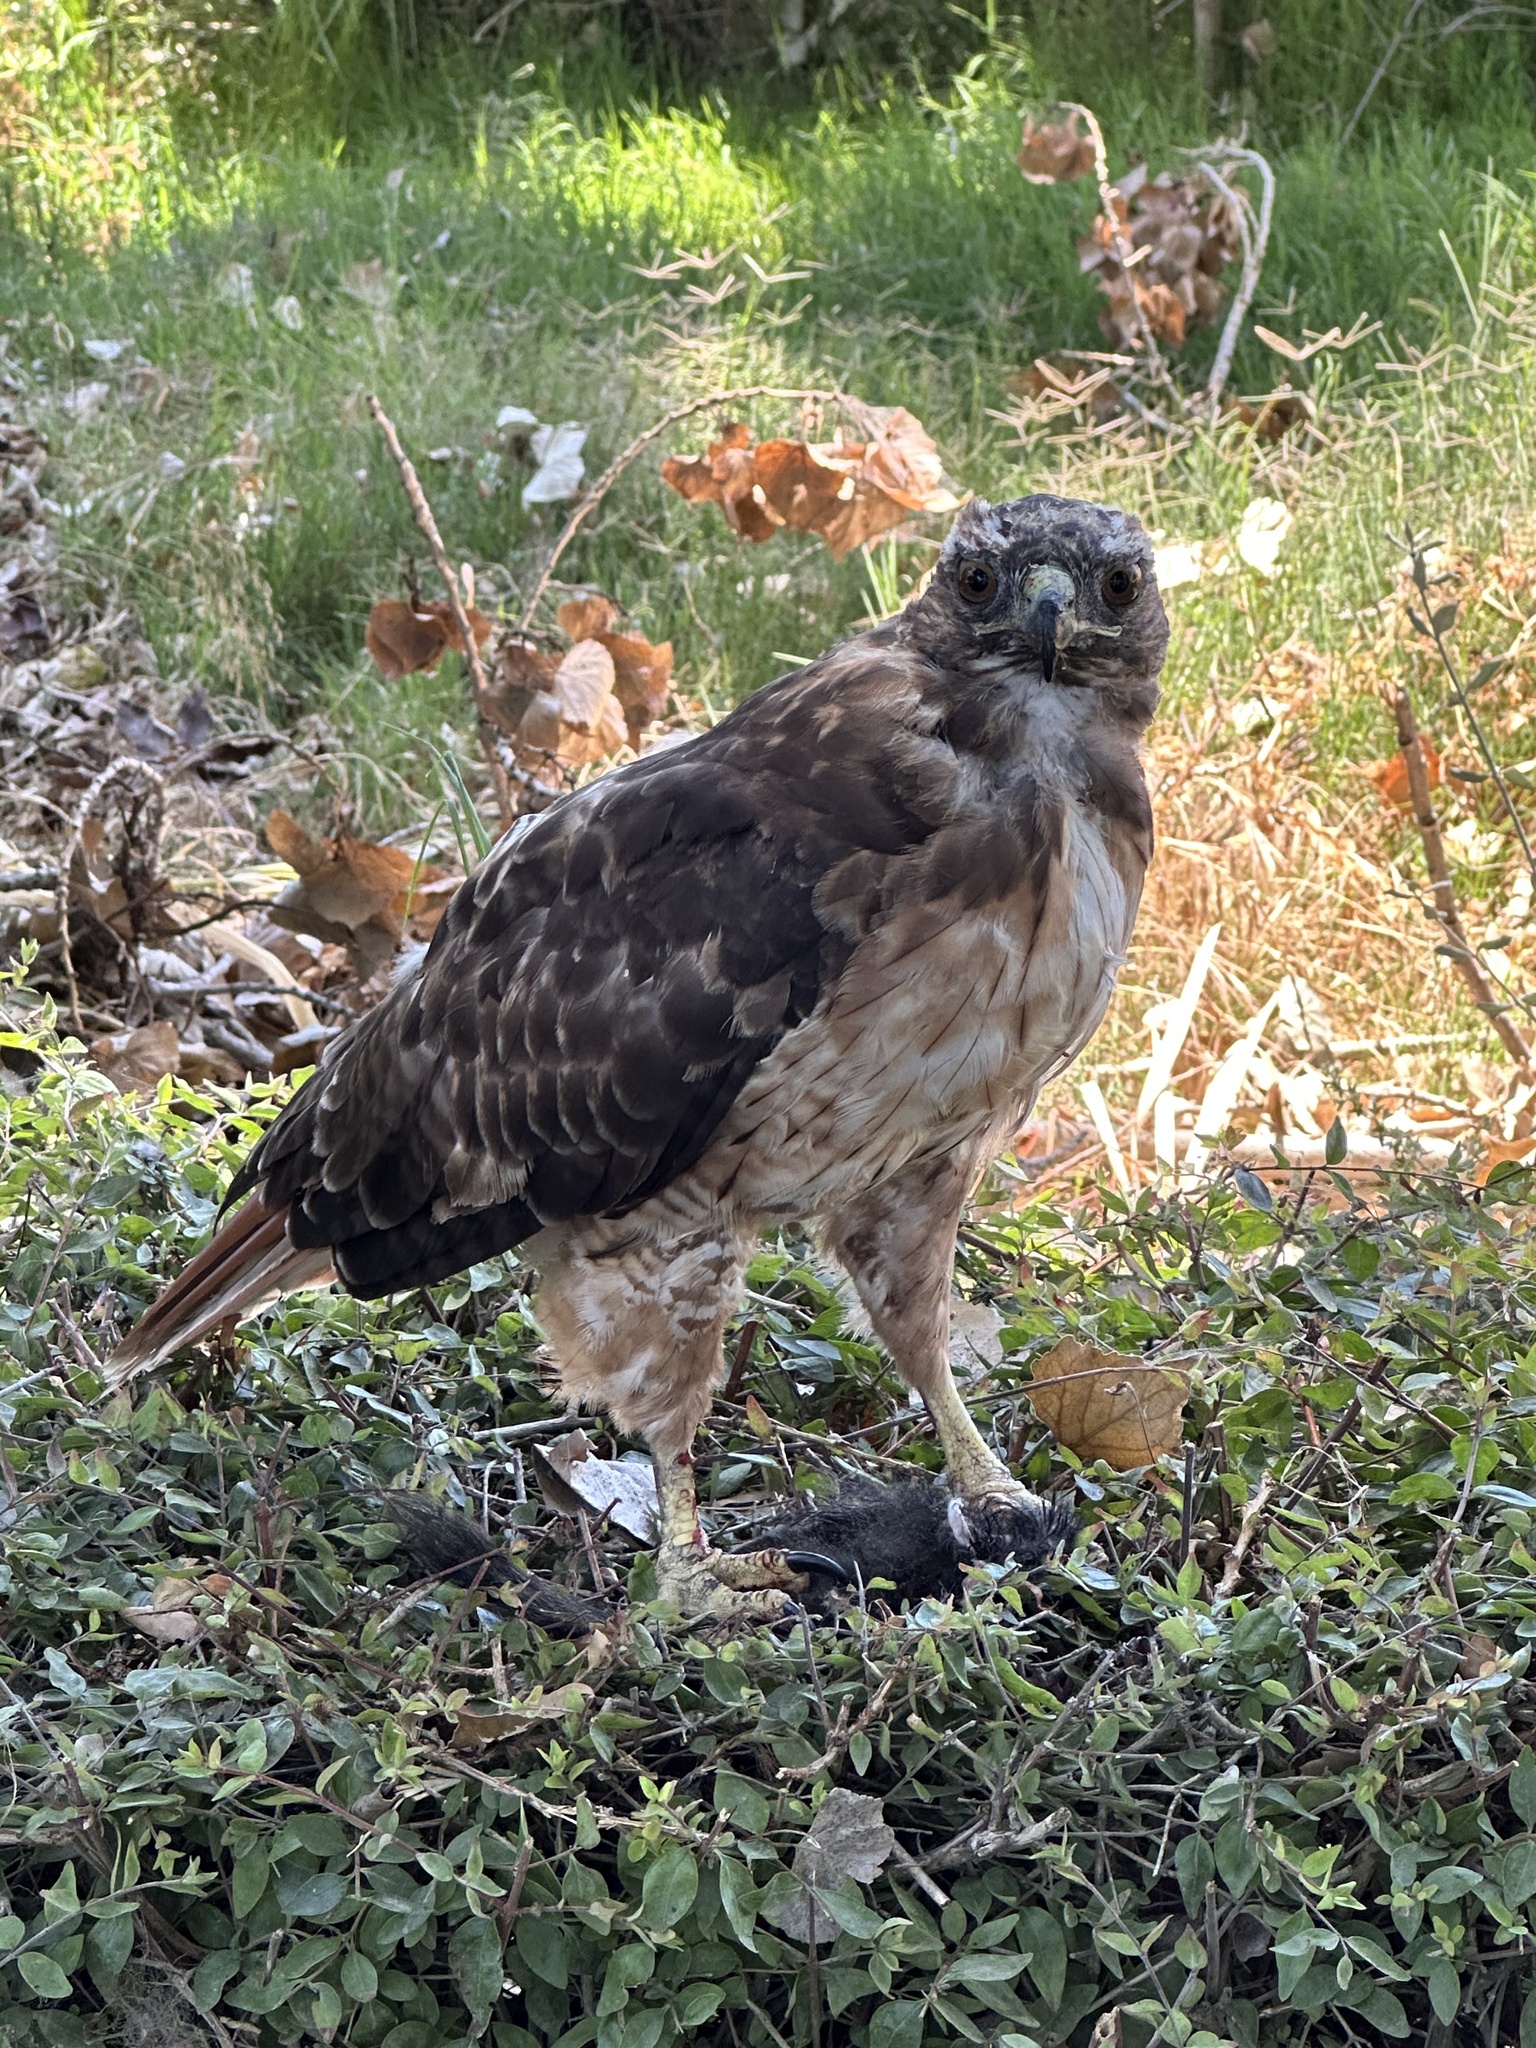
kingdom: Animalia
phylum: Chordata
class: Aves
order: Accipitriformes
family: Accipitridae
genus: Buteo
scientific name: Buteo jamaicensis
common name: Red-tailed hawk
